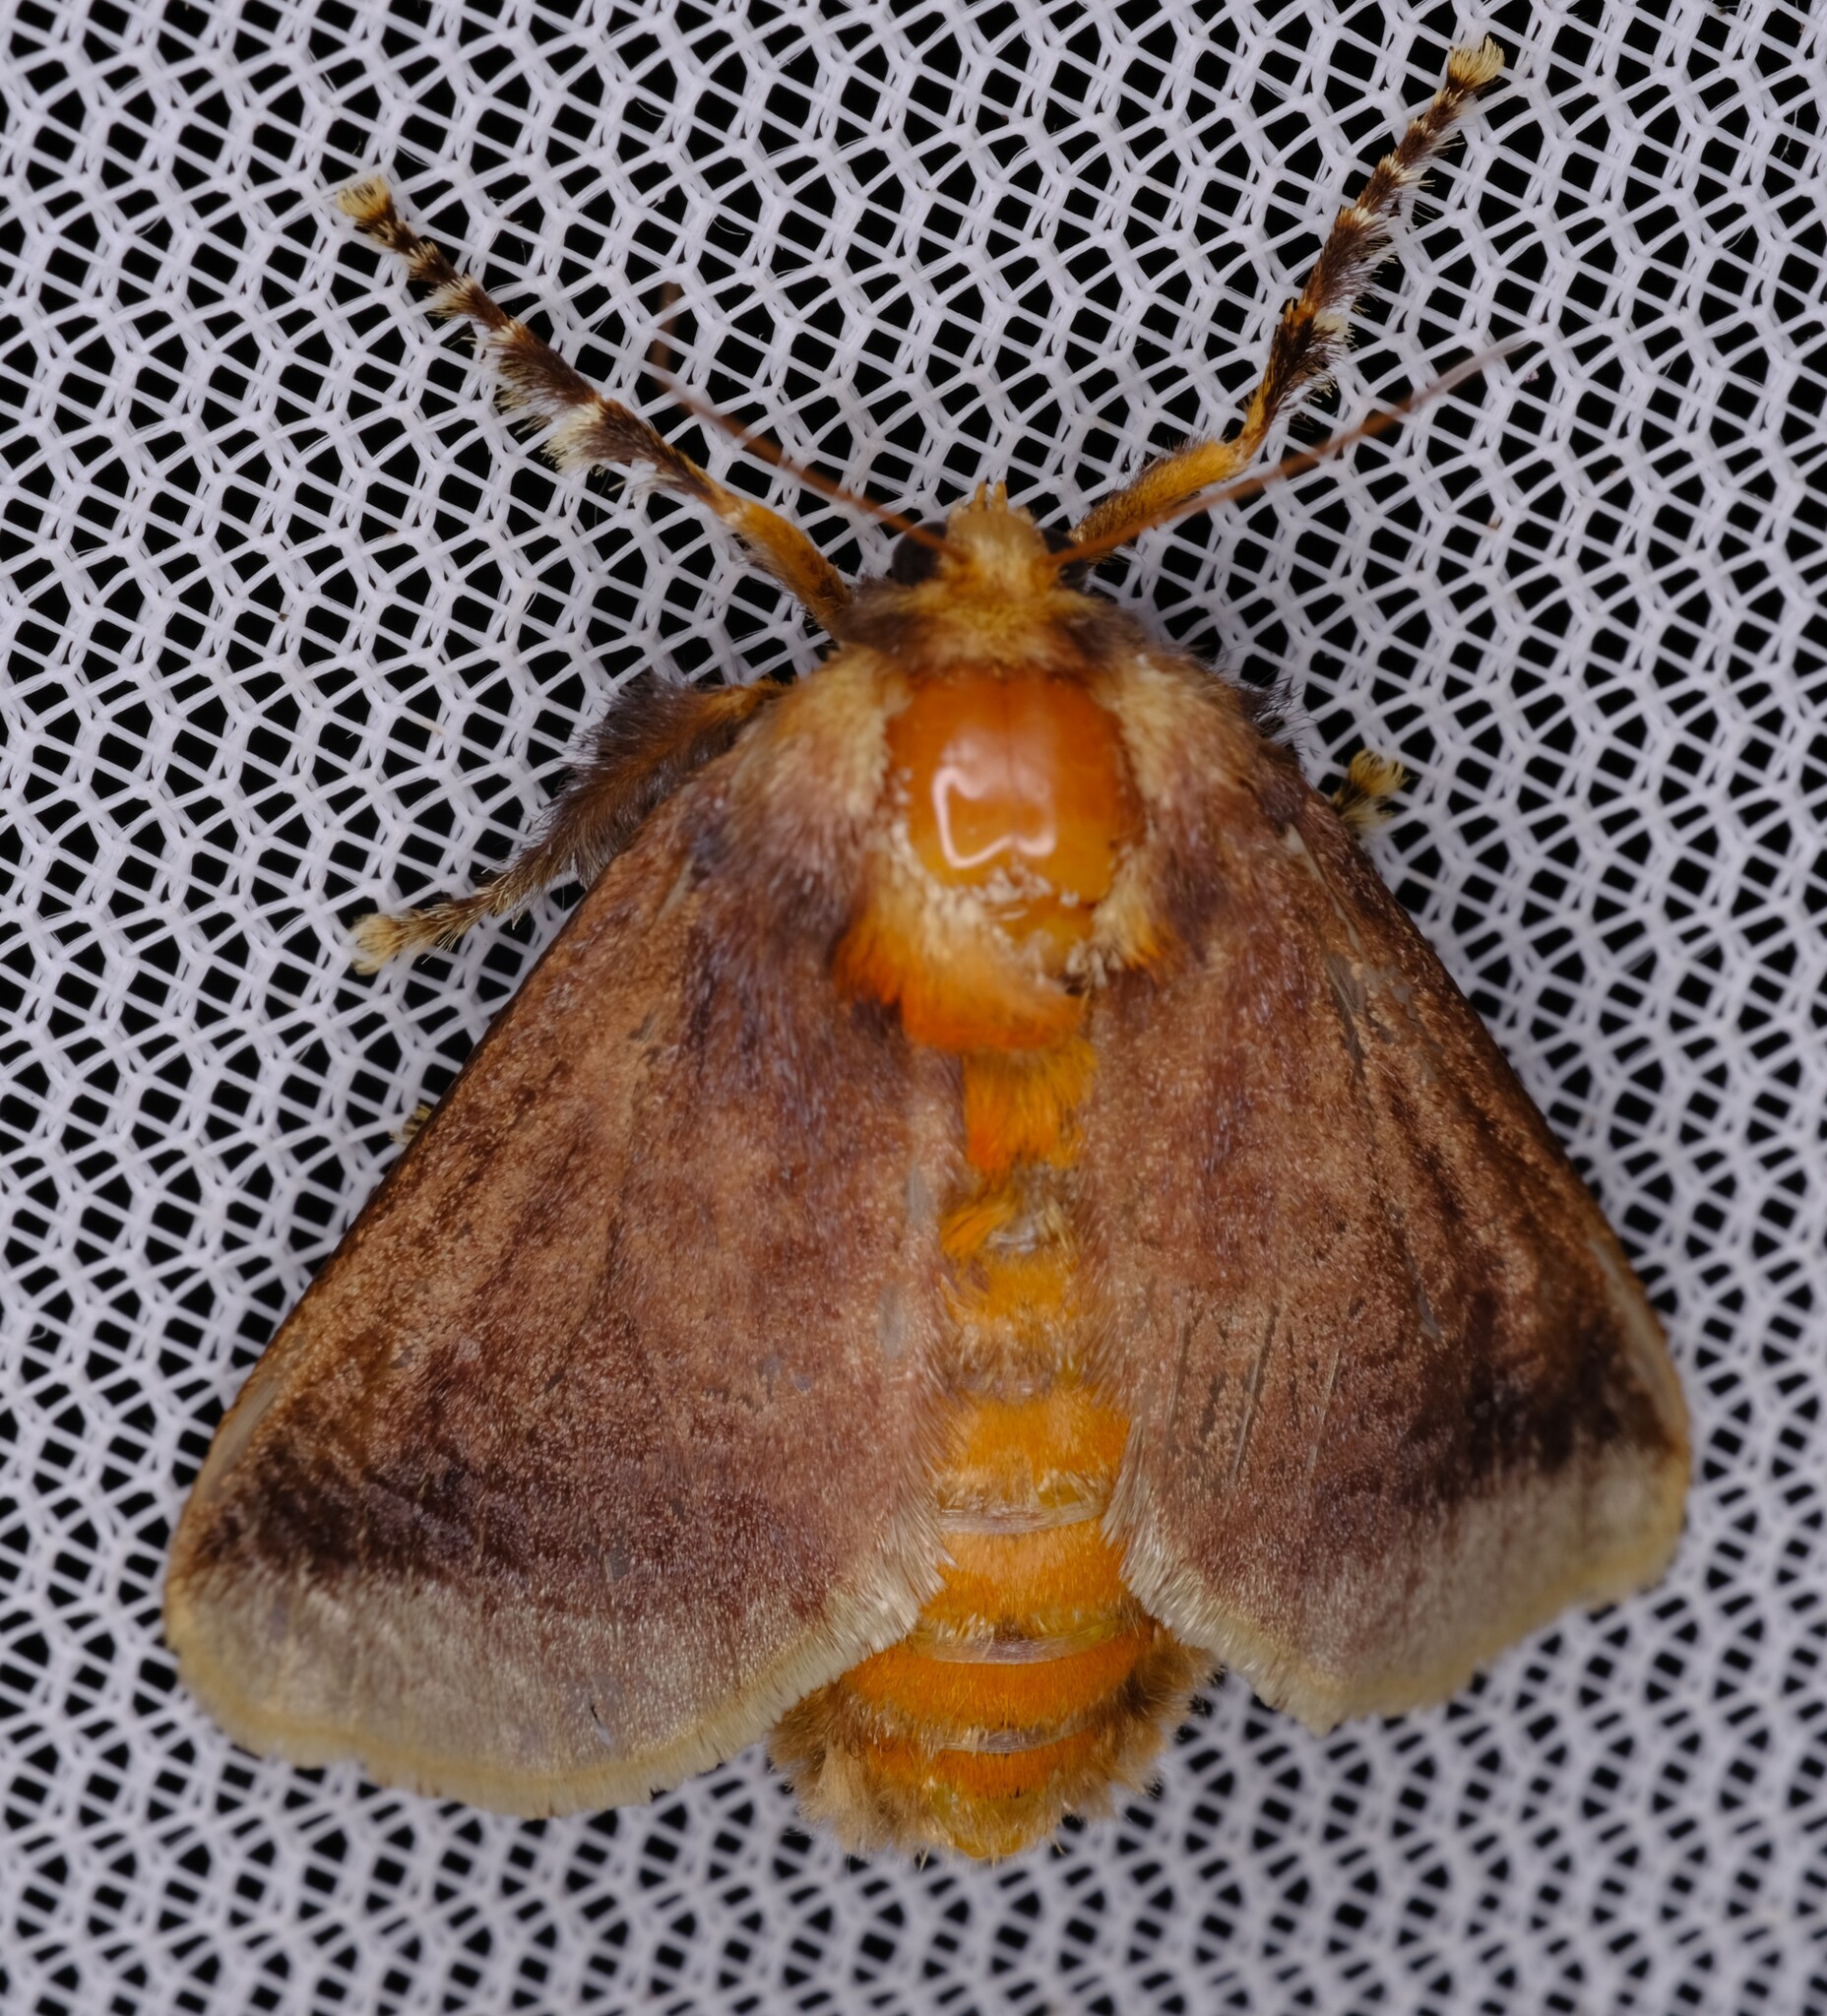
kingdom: Animalia
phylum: Arthropoda
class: Insecta
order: Lepidoptera
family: Limacodidae
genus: Doratifera
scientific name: Doratifera oxleyi
